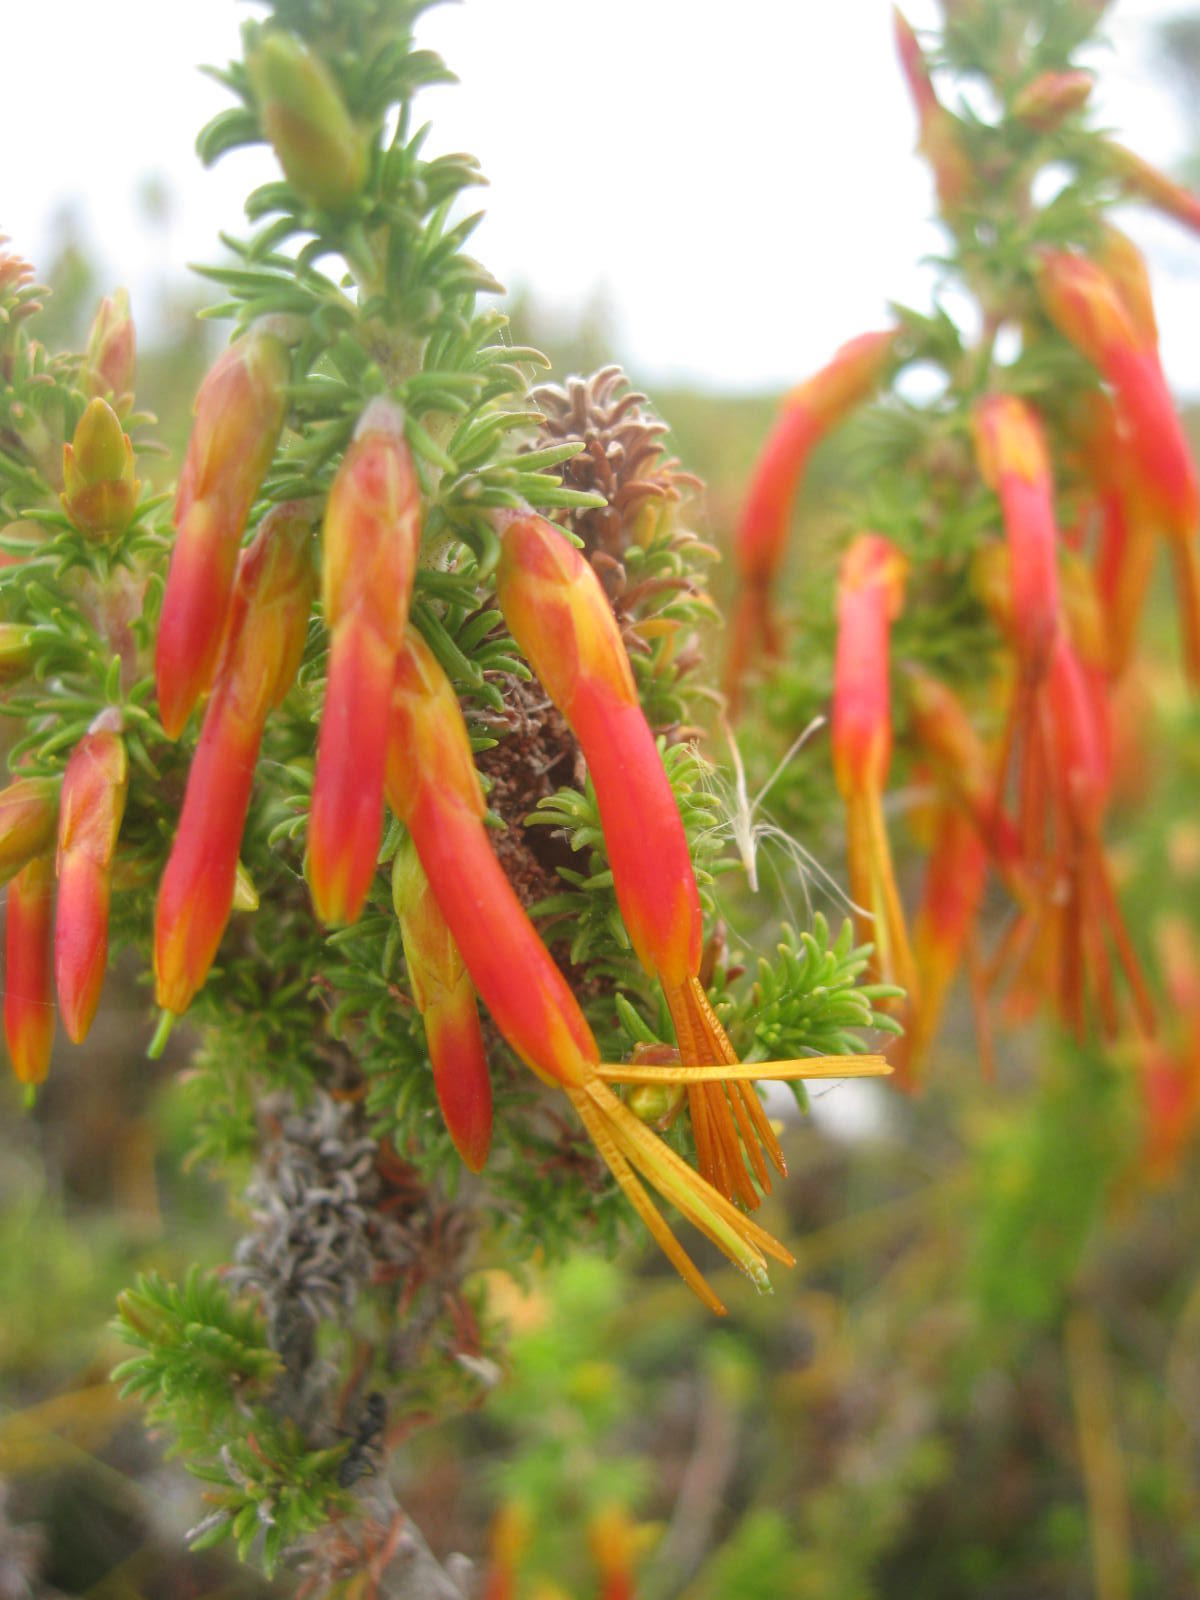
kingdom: Plantae
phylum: Tracheophyta
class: Magnoliopsida
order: Ericales
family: Ericaceae
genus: Erica
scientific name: Erica coccinea
